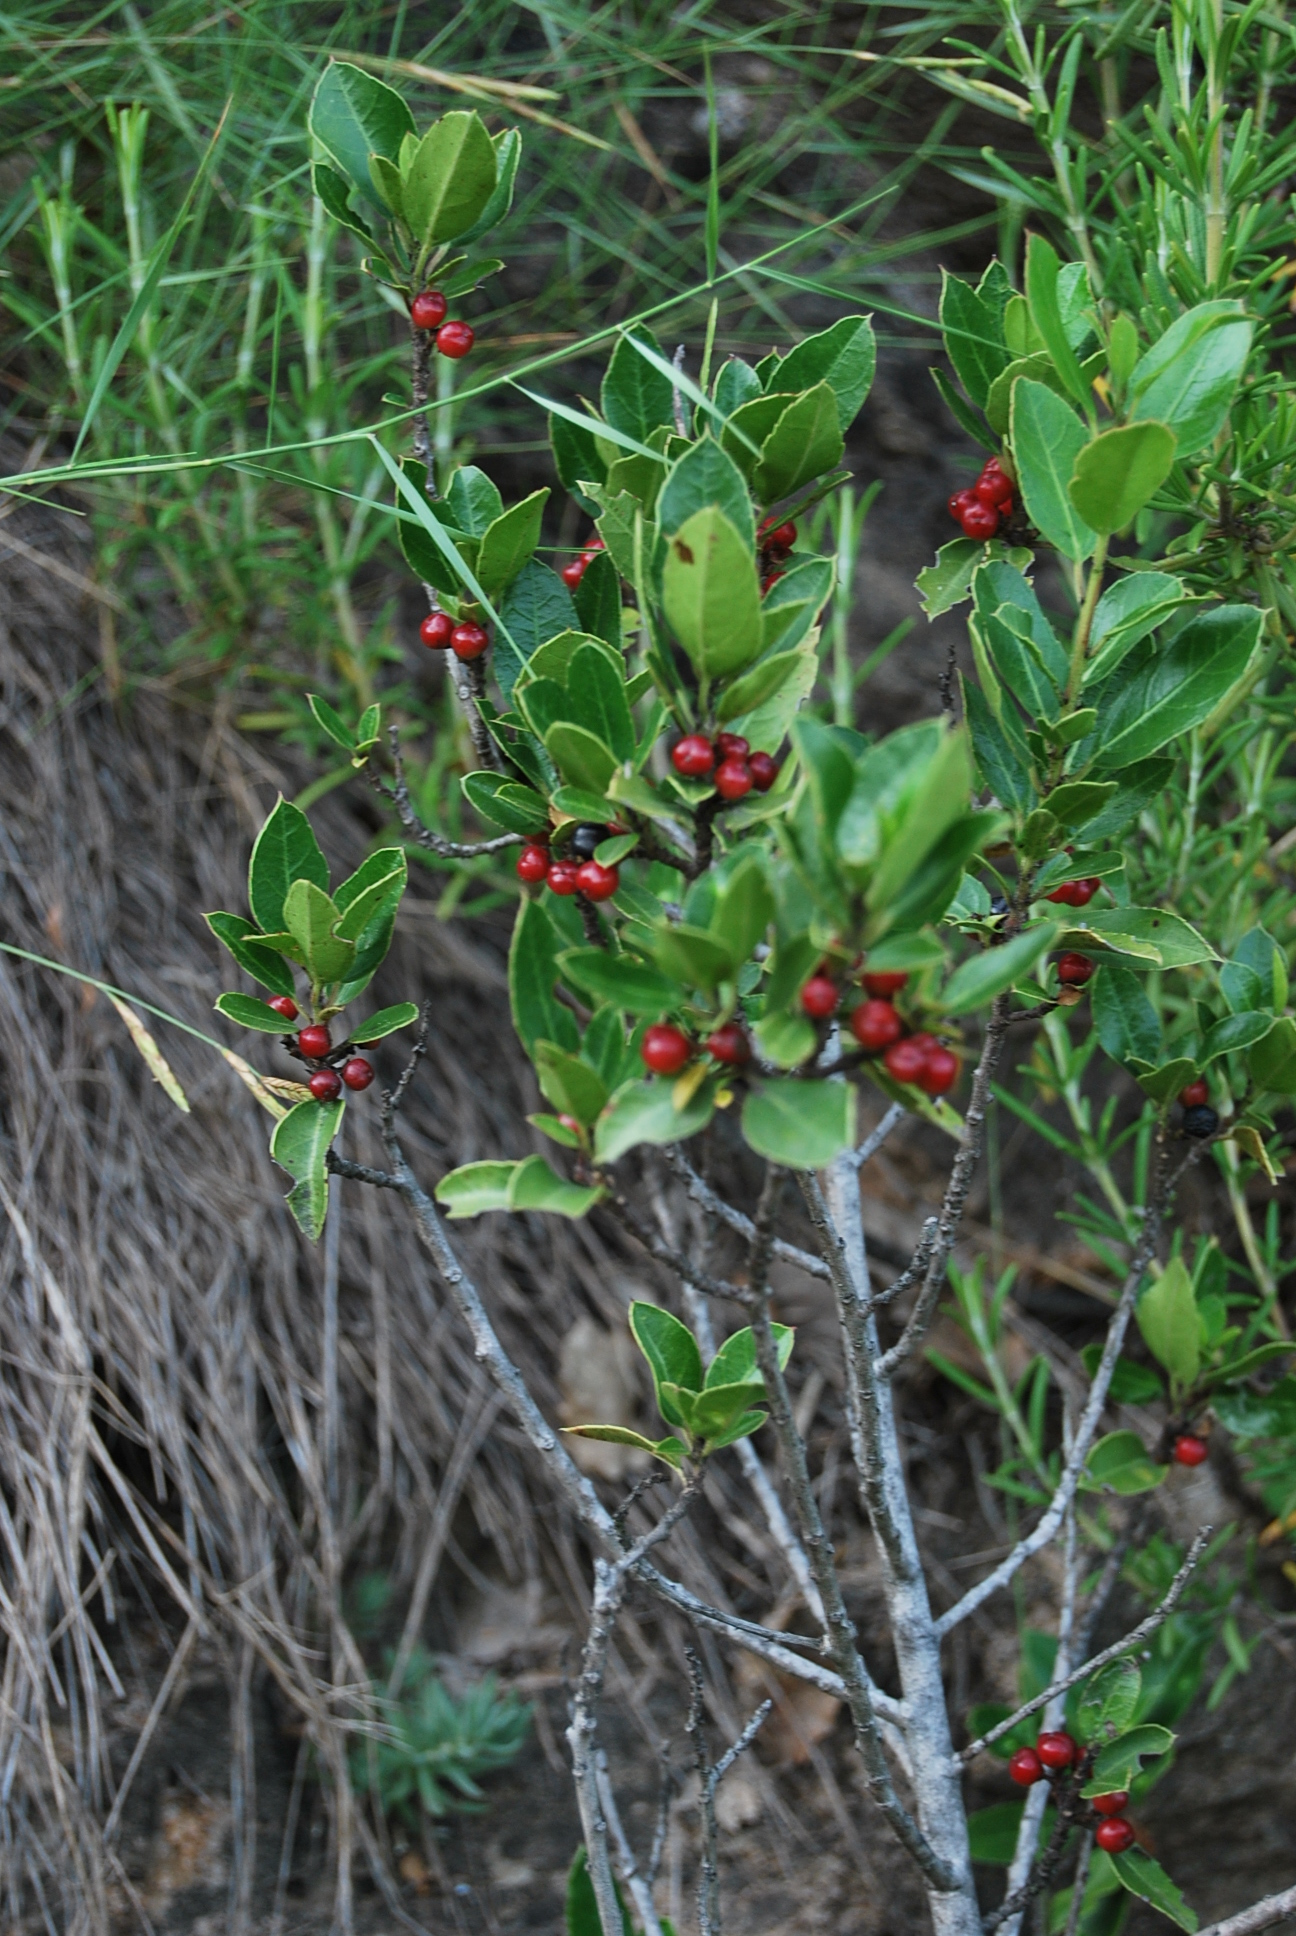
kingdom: Plantae
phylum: Tracheophyta
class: Magnoliopsida
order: Rosales
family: Rhamnaceae
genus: Rhamnus
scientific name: Rhamnus alaternus
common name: Mediterranean buckthorn
